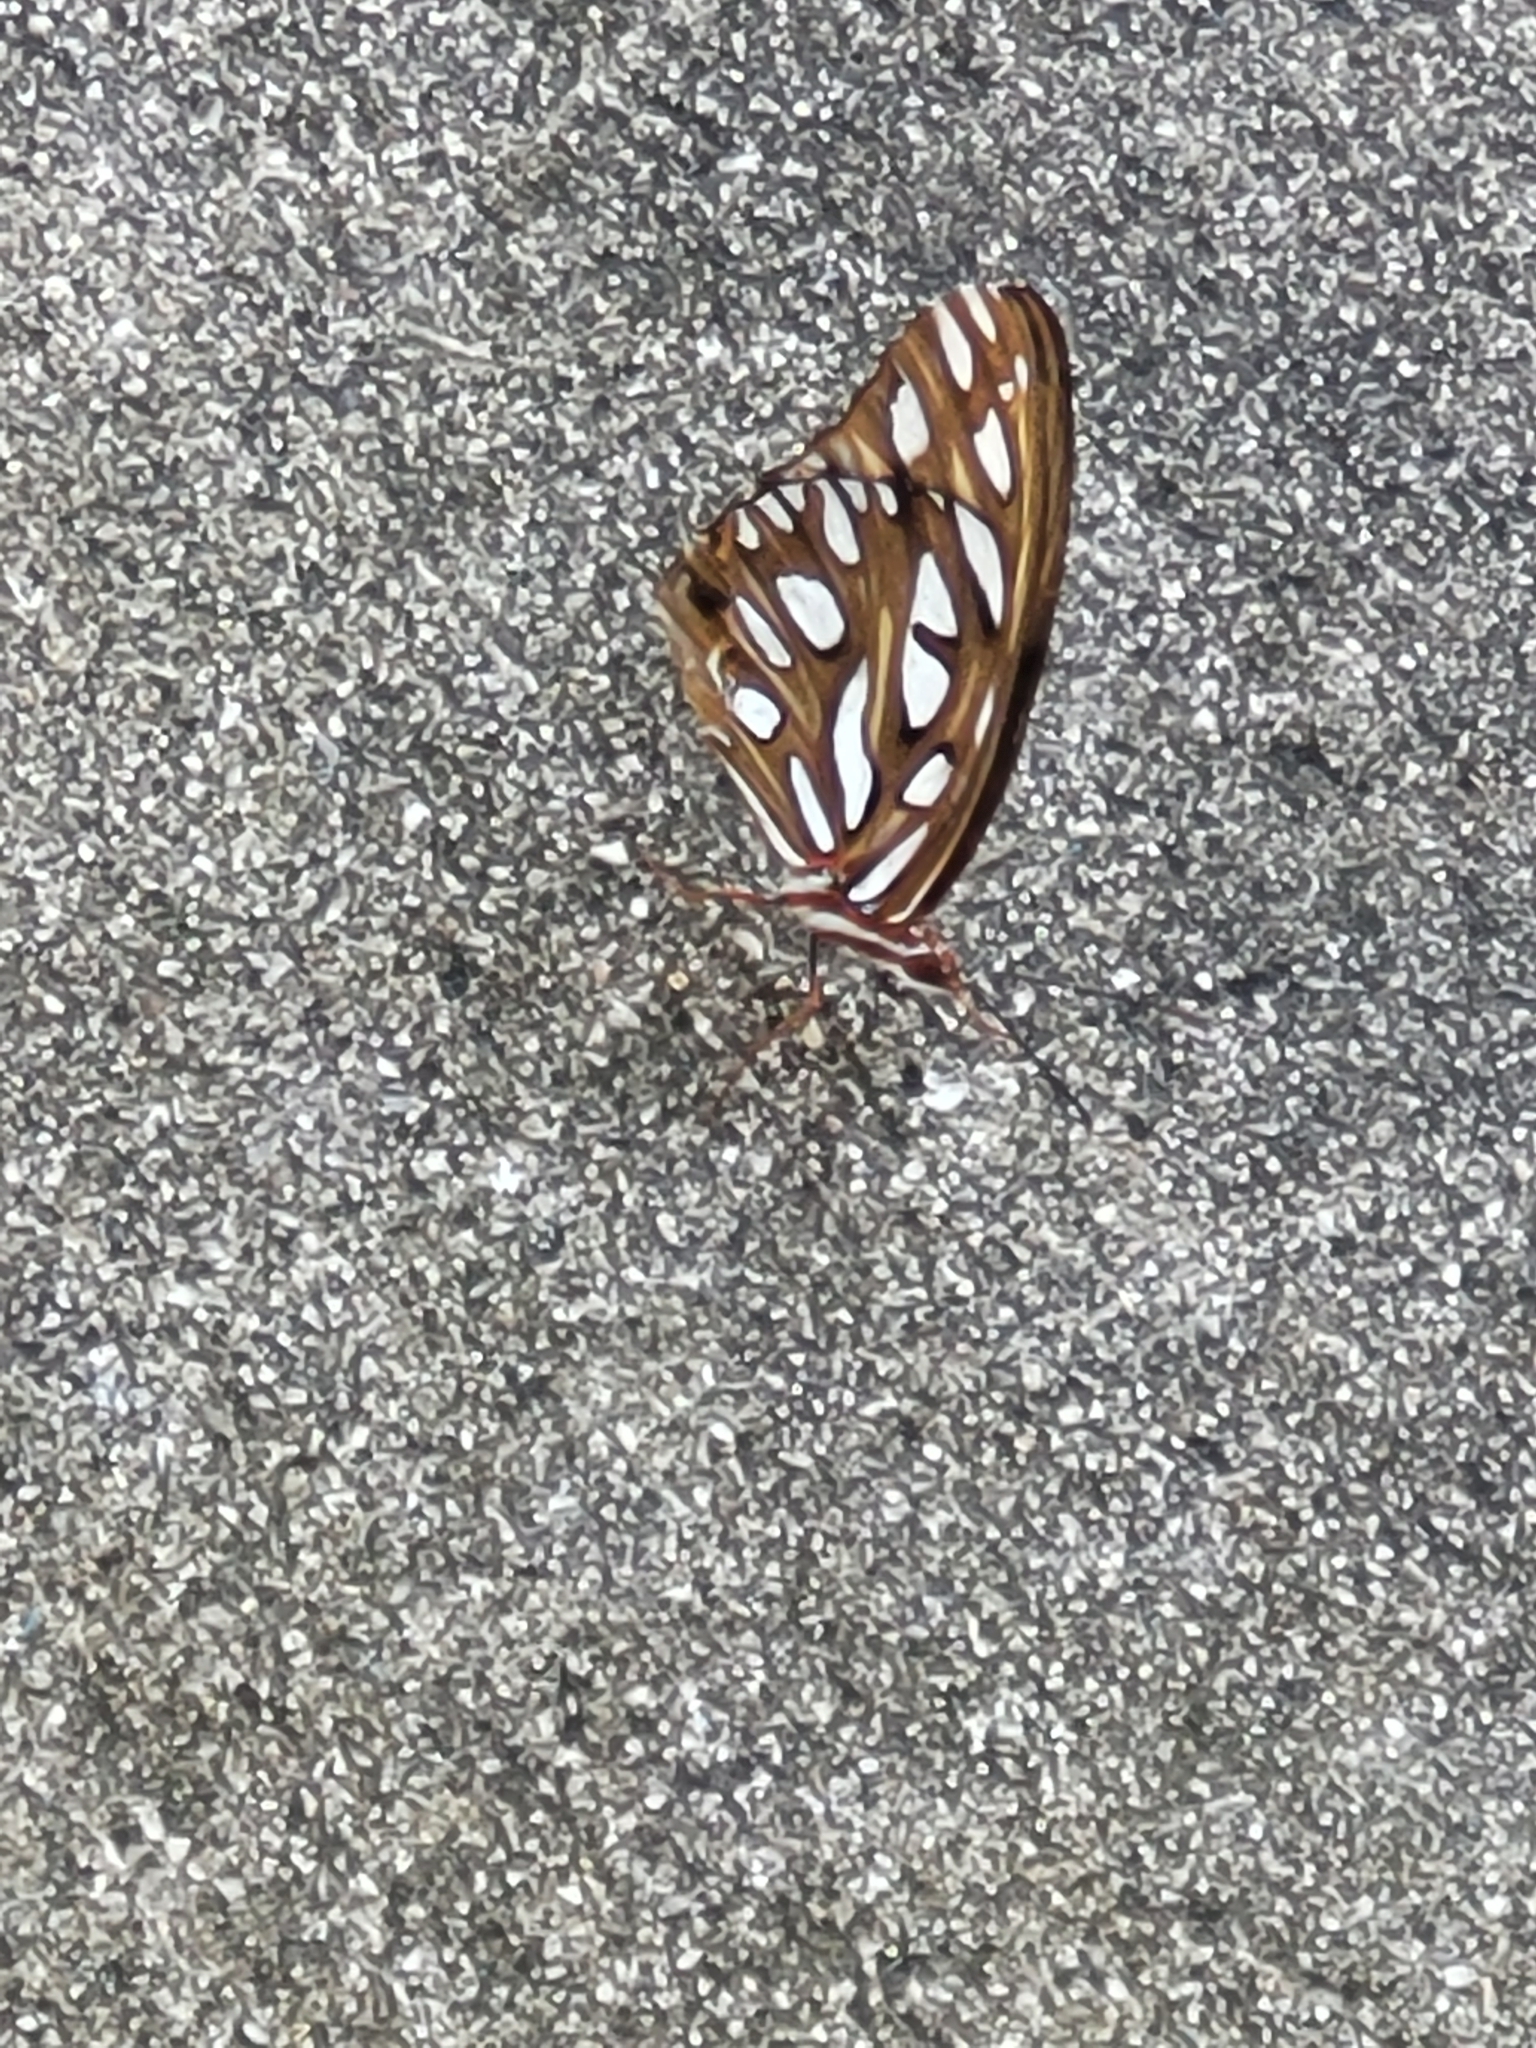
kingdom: Animalia
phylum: Arthropoda
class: Insecta
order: Lepidoptera
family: Nymphalidae
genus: Dione
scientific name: Dione vanillae
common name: Gulf fritillary
